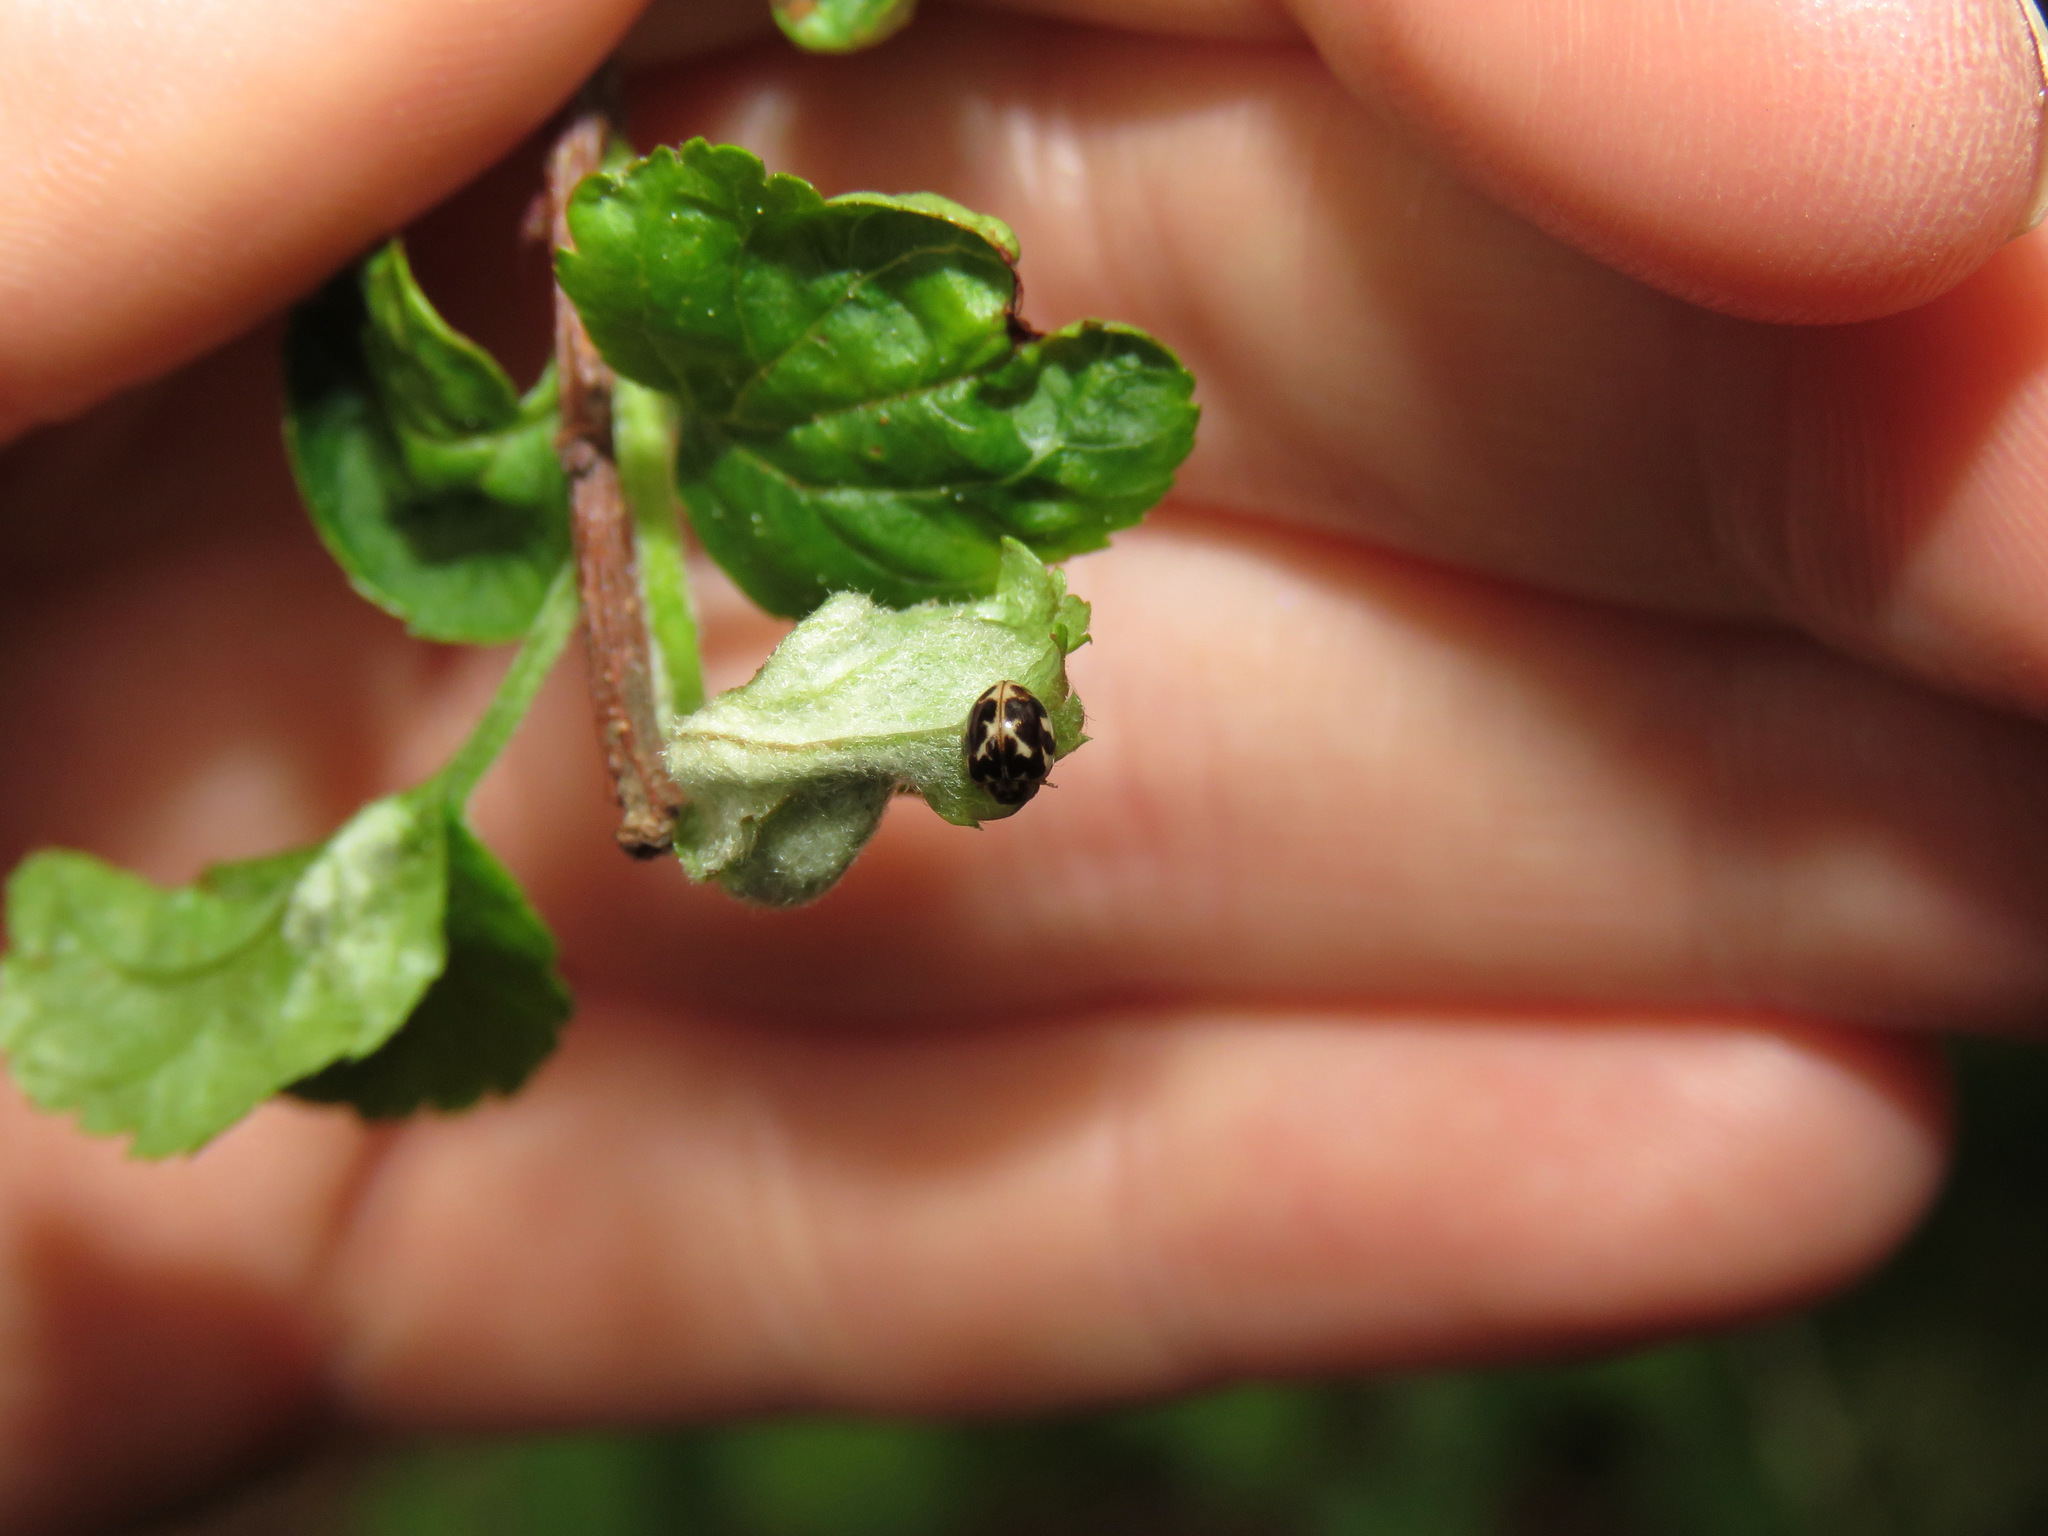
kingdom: Animalia
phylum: Arthropoda
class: Insecta
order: Coleoptera
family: Coccinellidae
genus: Psyllobora
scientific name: Psyllobora vigintimaculata
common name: Ladybird beetle
